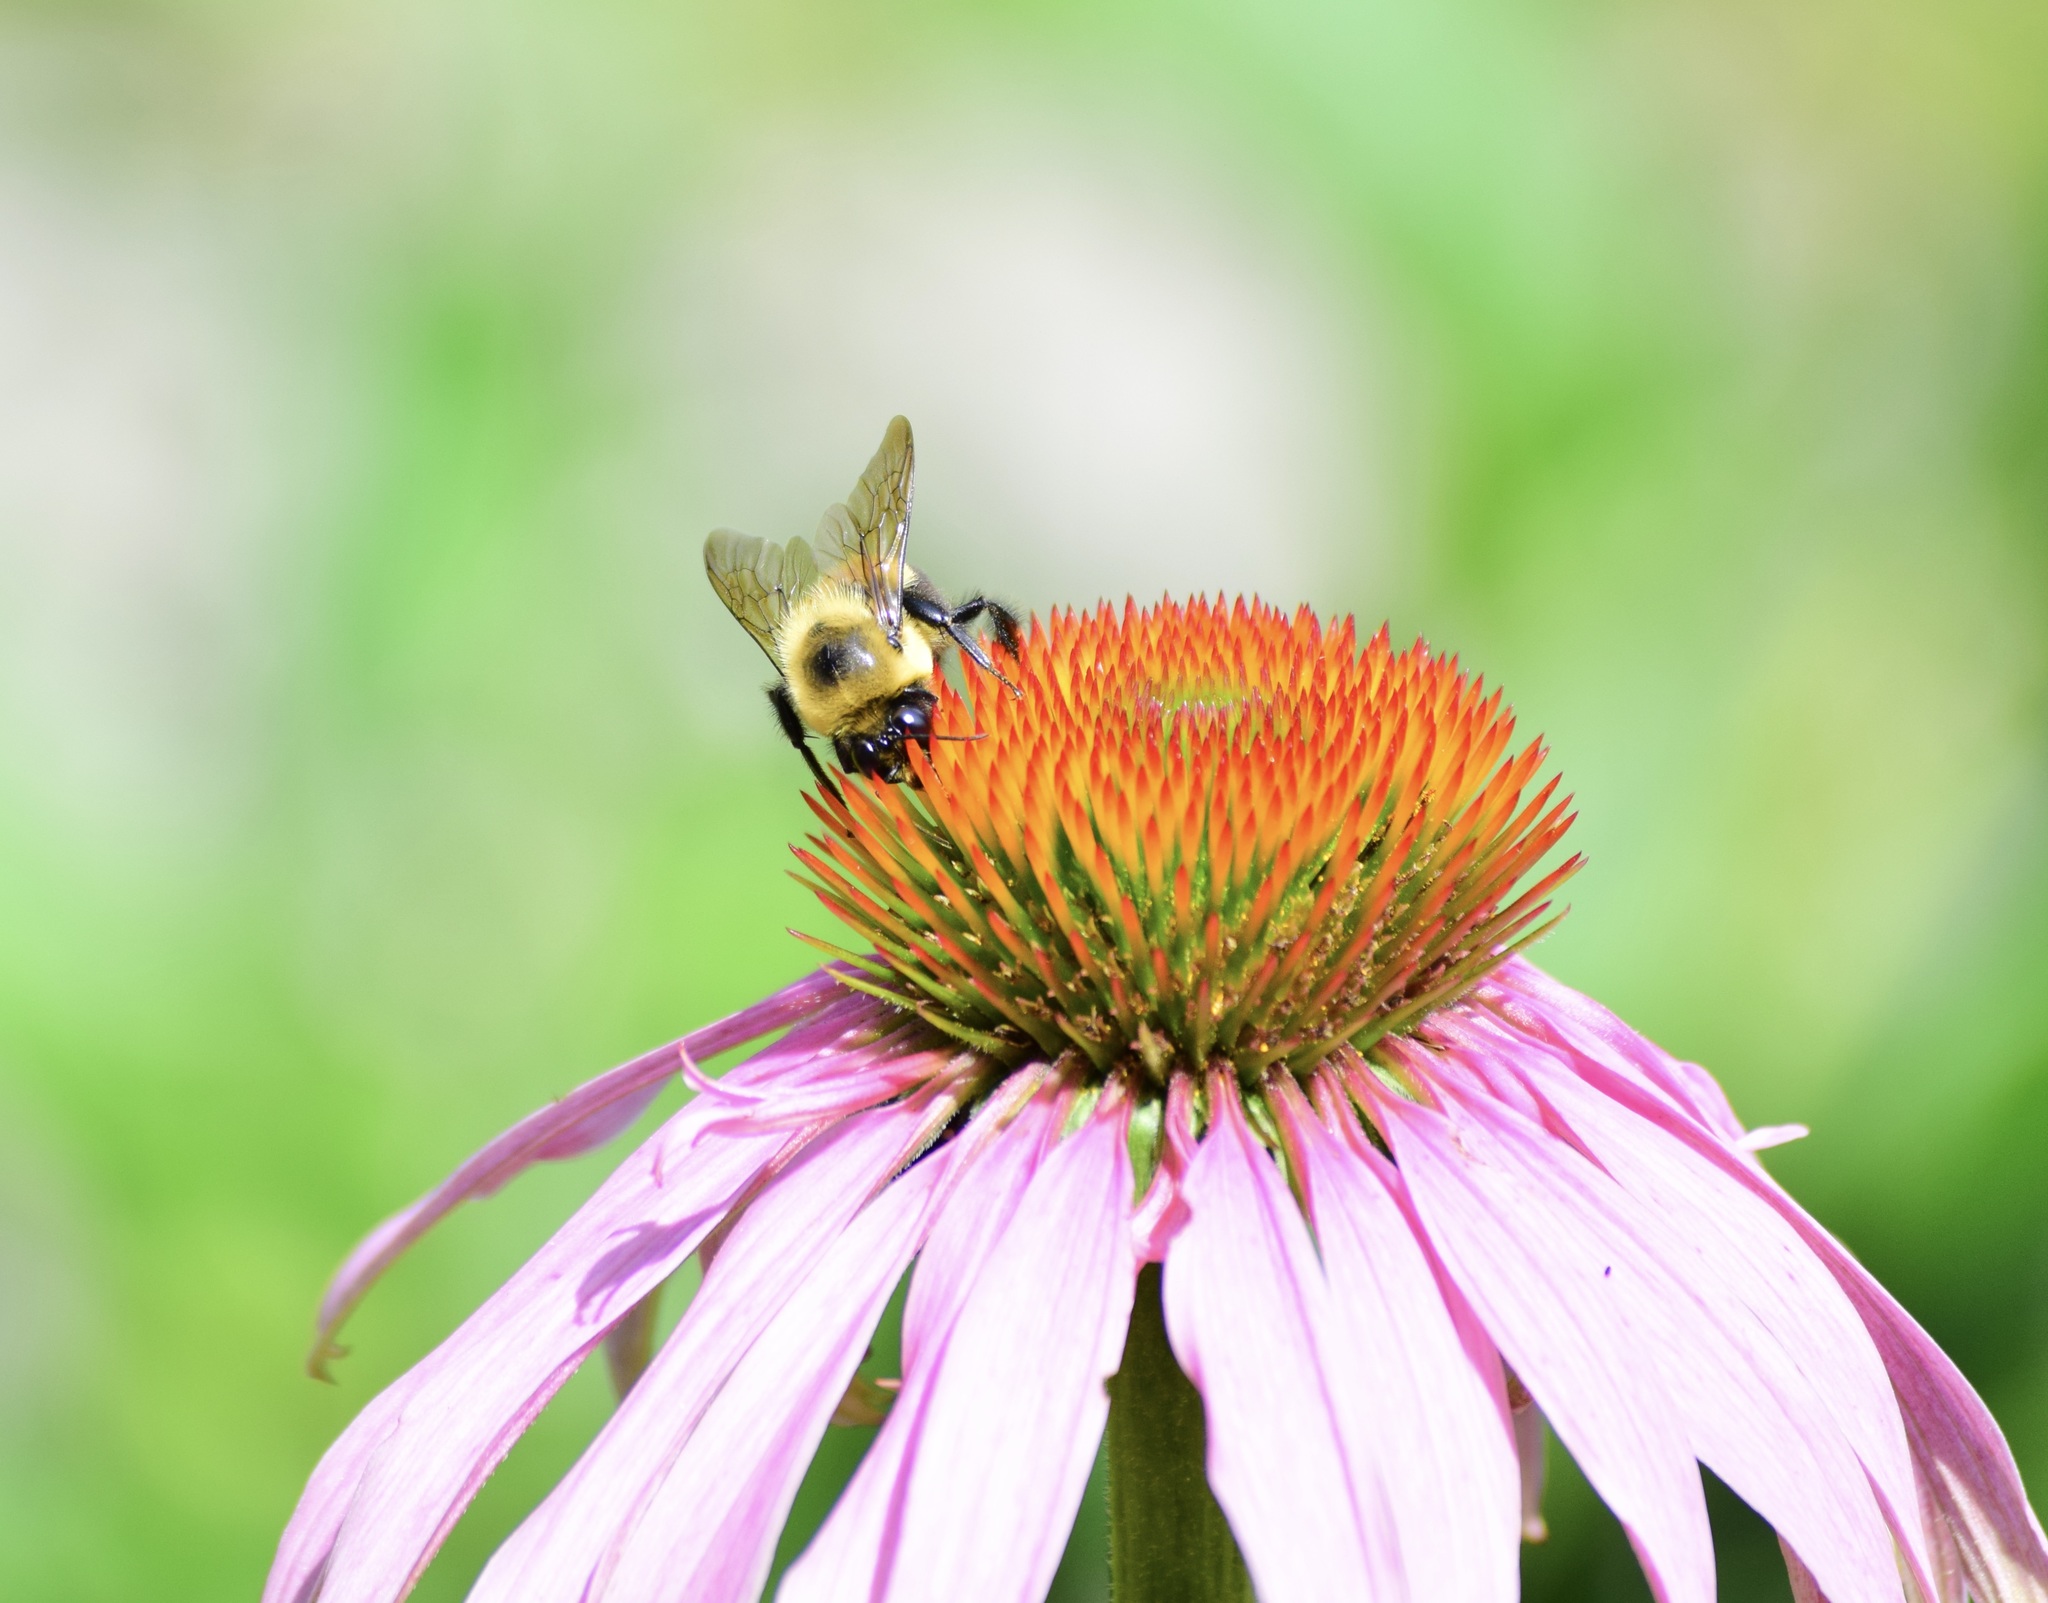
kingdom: Animalia
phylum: Arthropoda
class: Insecta
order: Hymenoptera
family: Apidae
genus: Bombus
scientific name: Bombus griseocollis
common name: Brown-belted bumble bee
